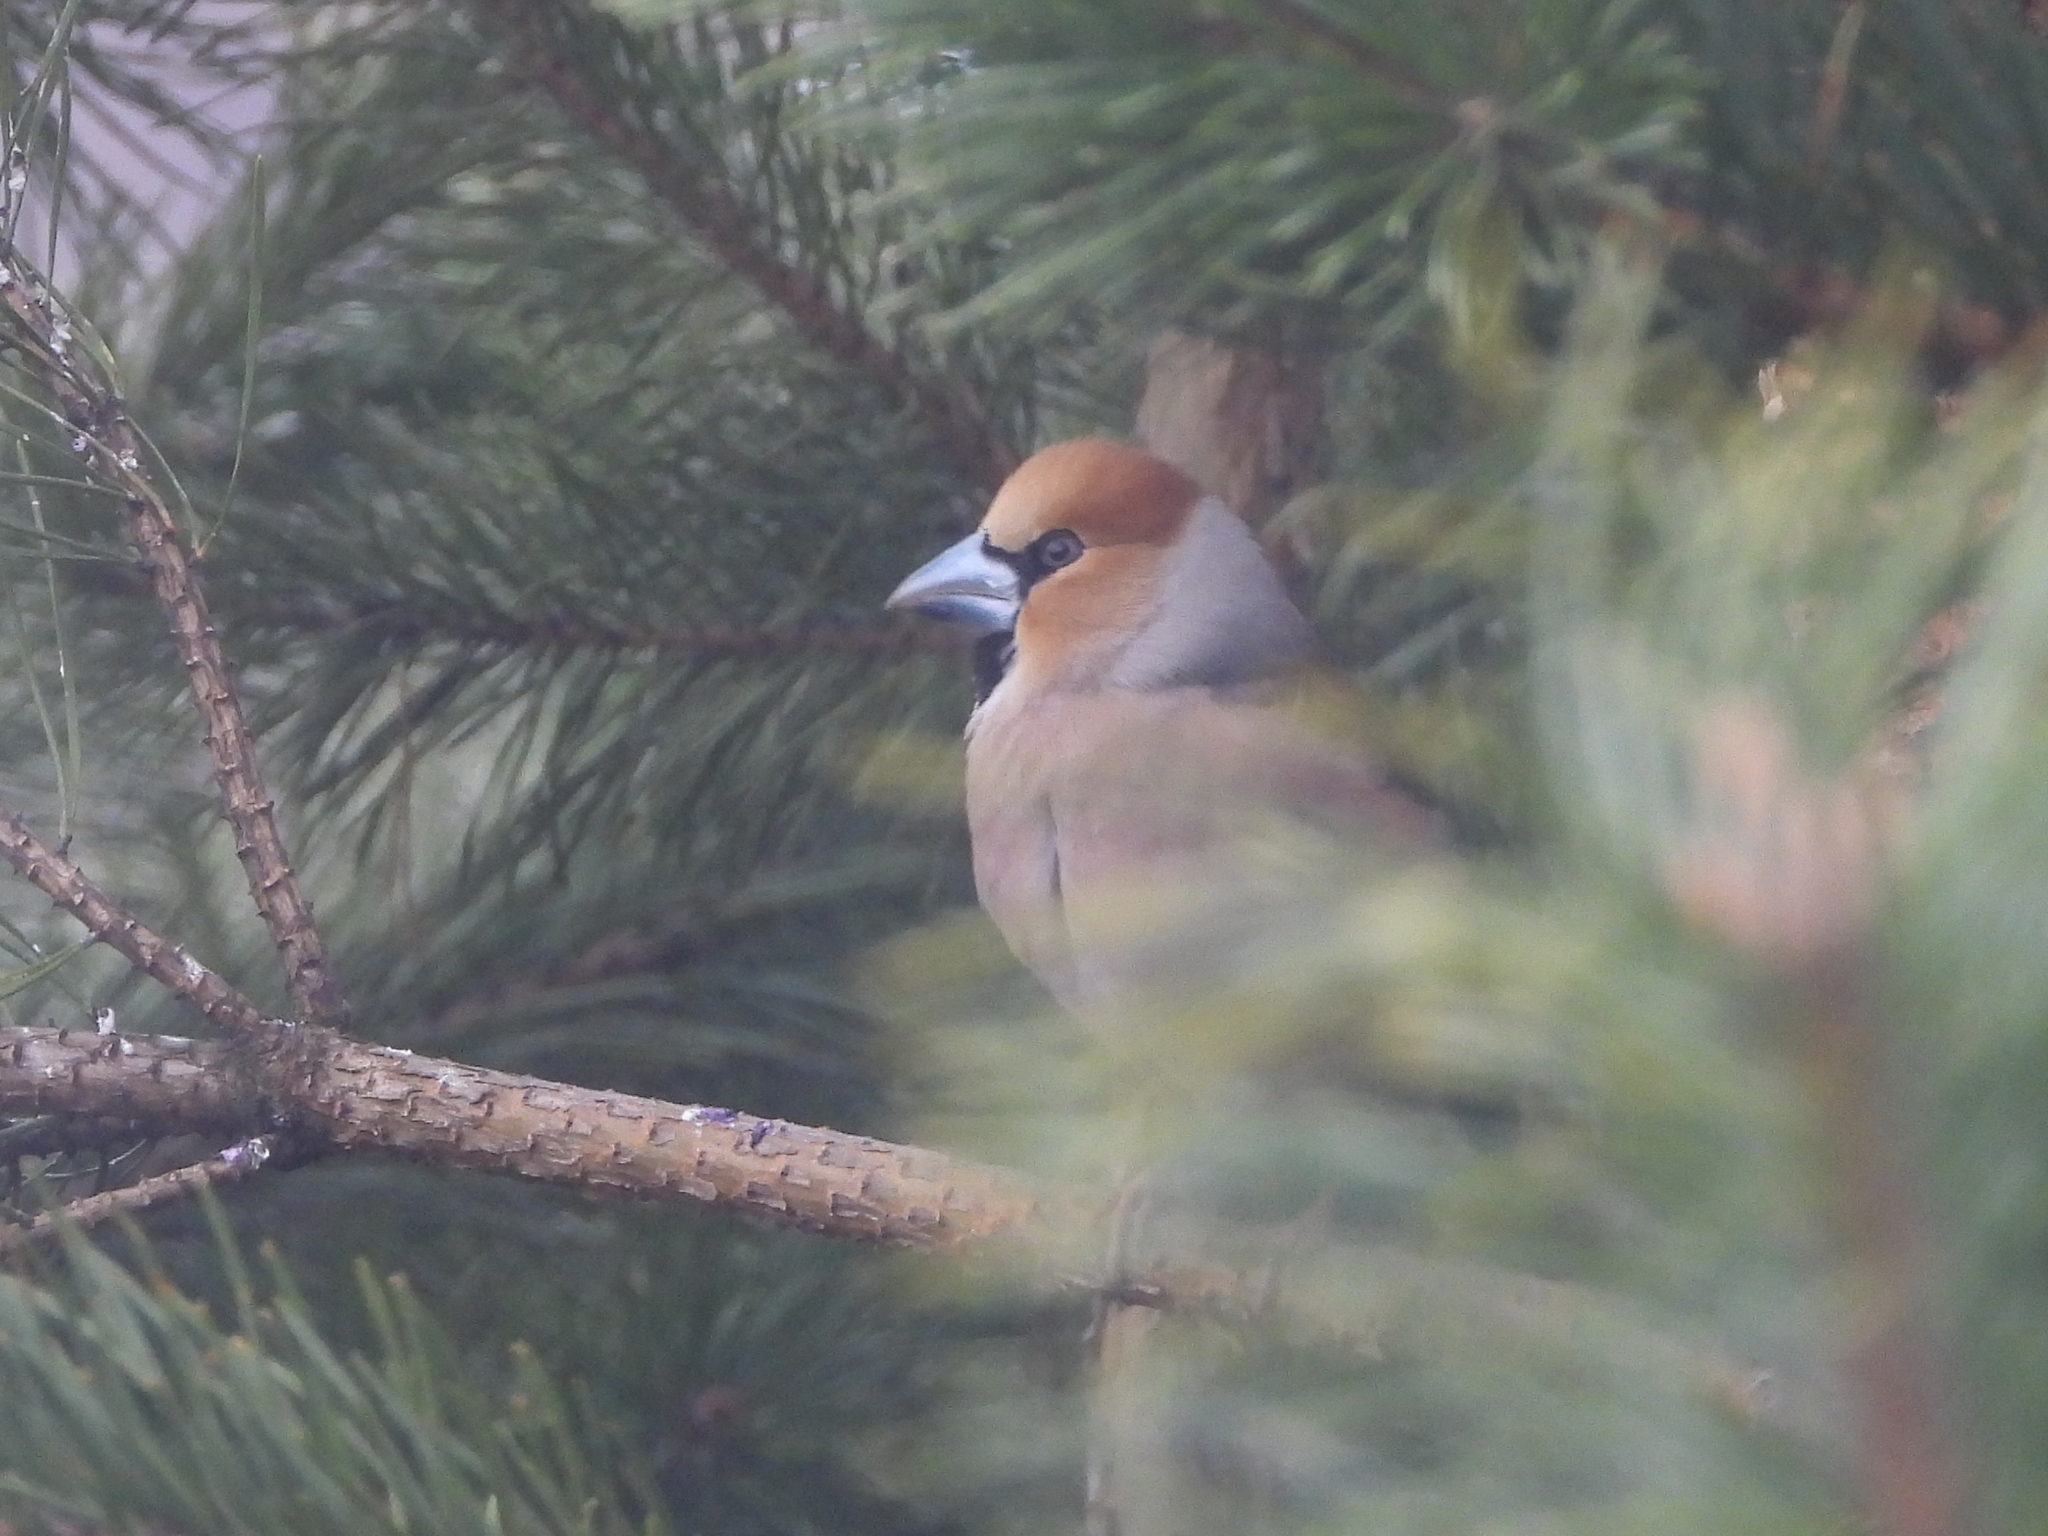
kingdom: Animalia
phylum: Chordata
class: Aves
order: Passeriformes
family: Fringillidae
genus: Coccothraustes
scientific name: Coccothraustes coccothraustes
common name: Hawfinch
